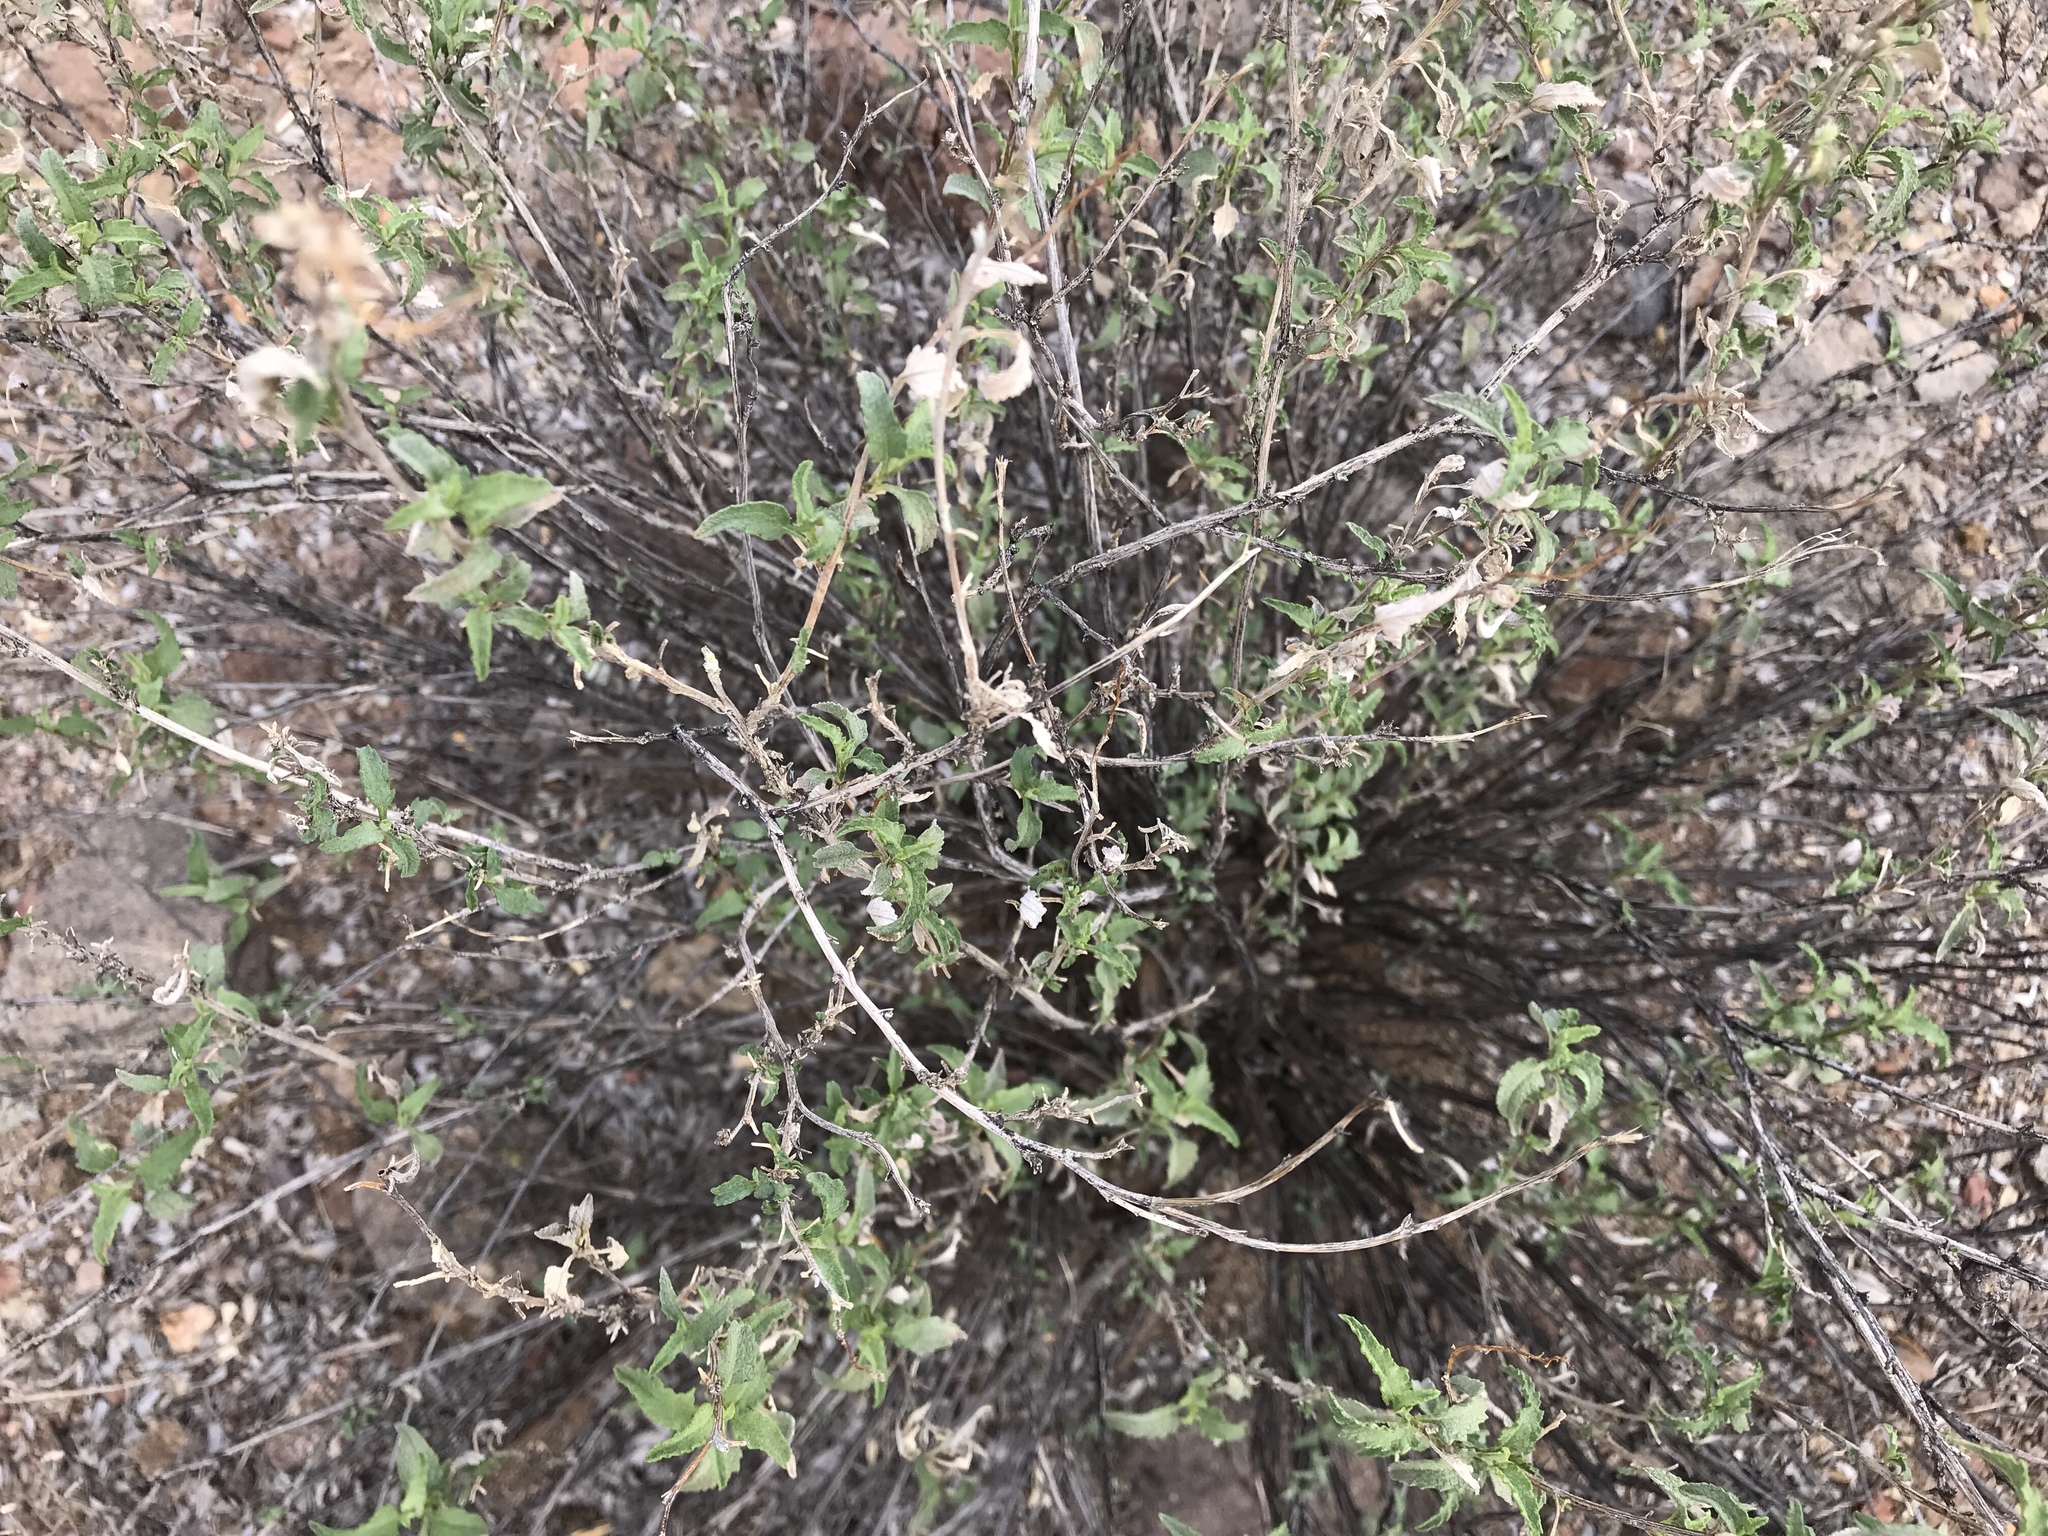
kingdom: Plantae
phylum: Tracheophyta
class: Magnoliopsida
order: Asterales
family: Asteraceae
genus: Ambrosia
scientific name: Ambrosia deltoidea
